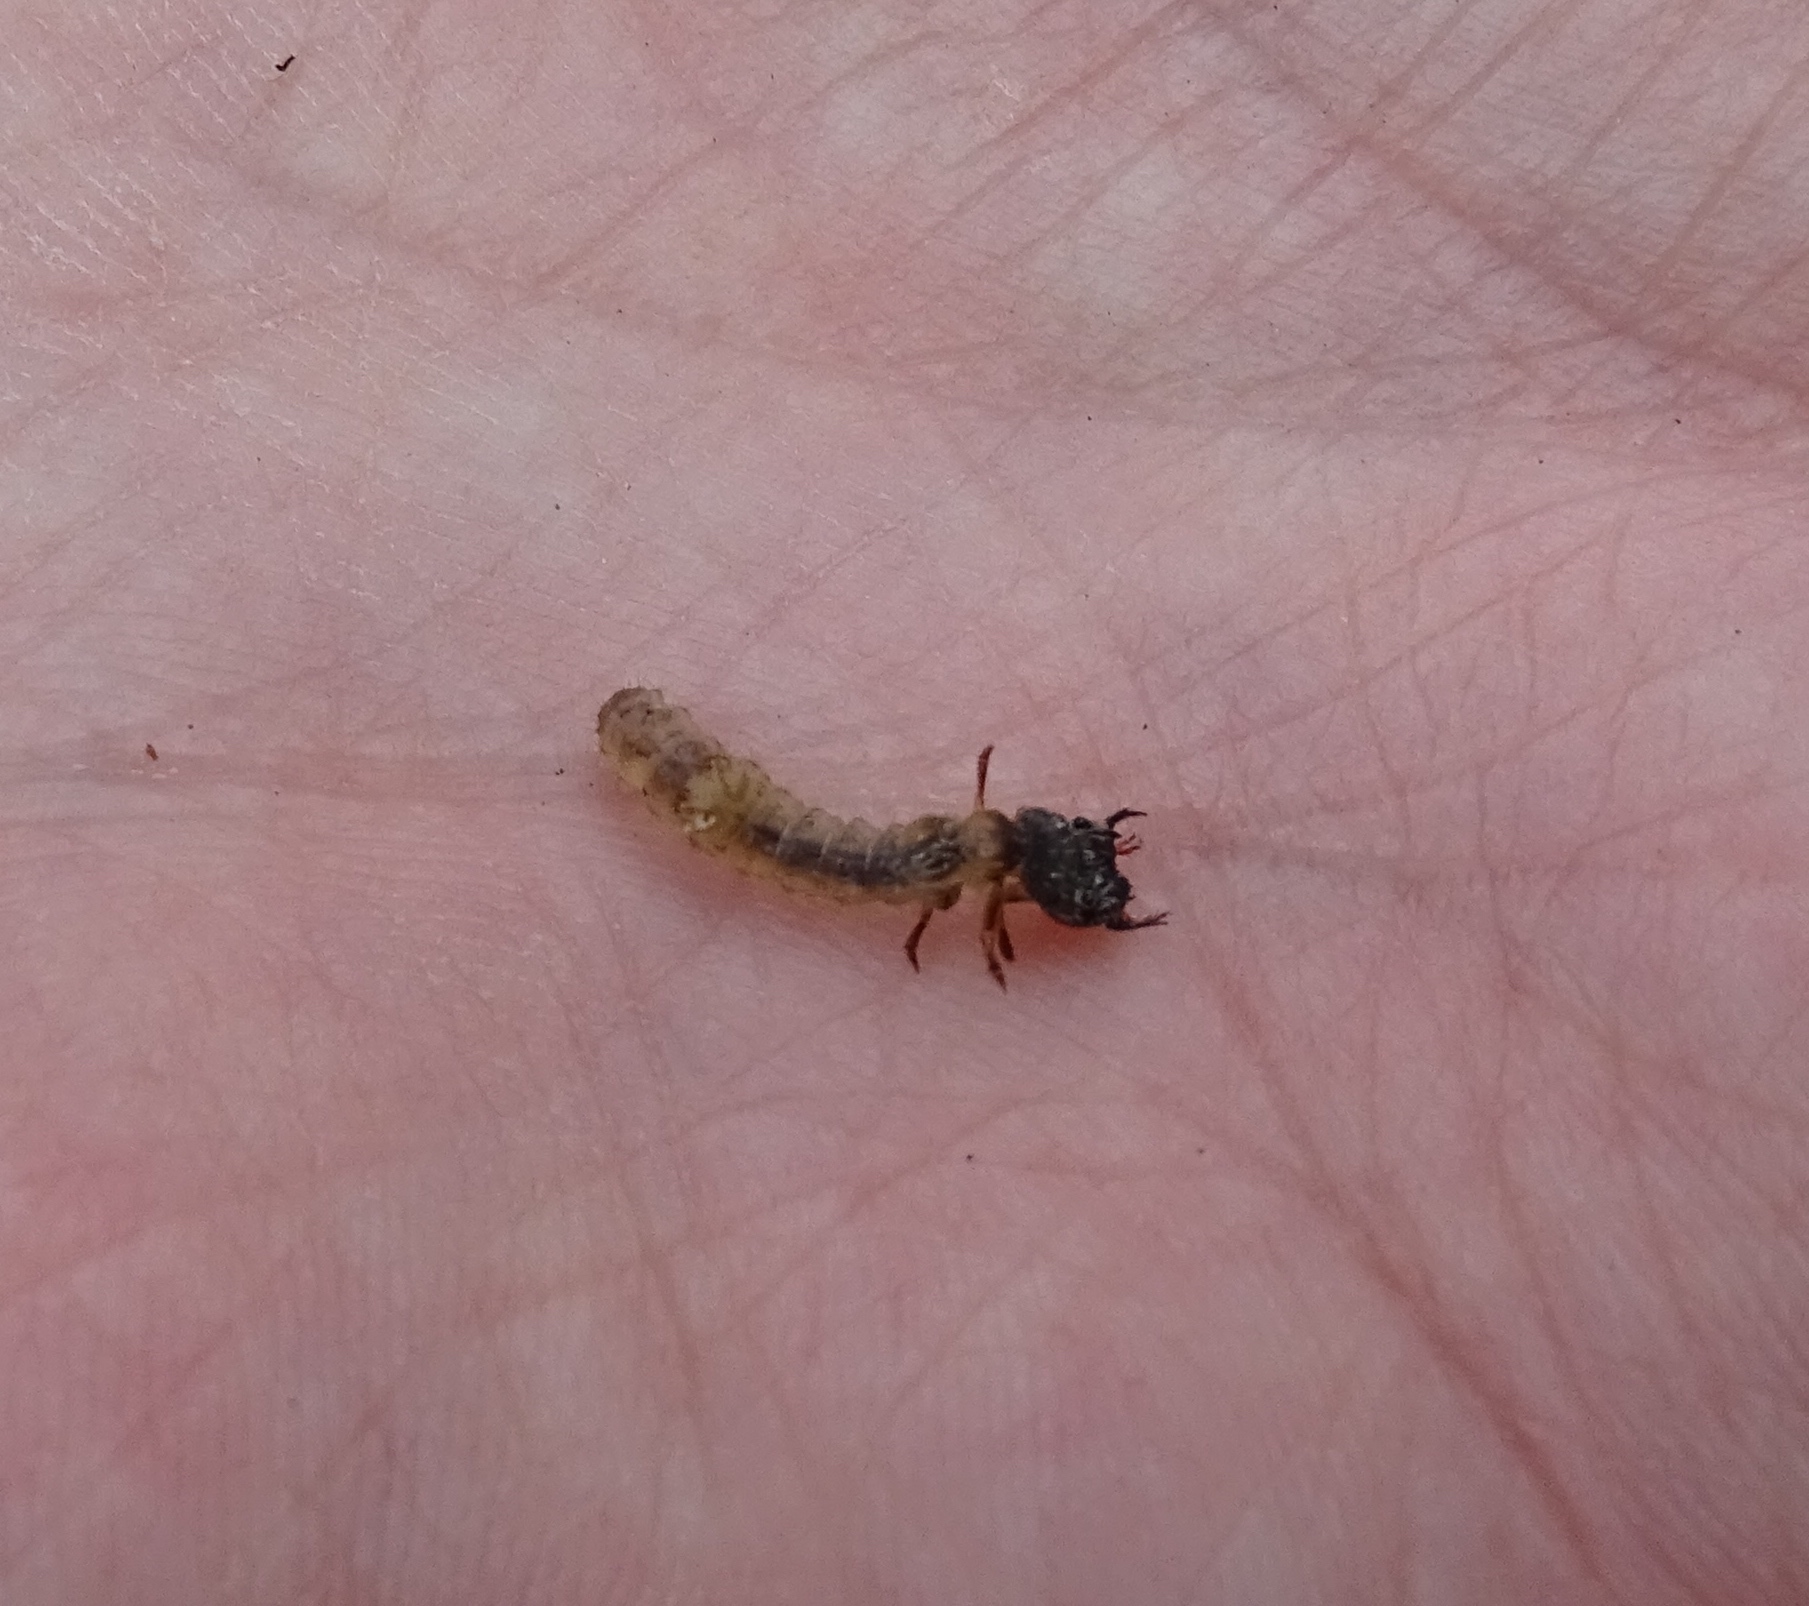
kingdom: Animalia
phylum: Arthropoda
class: Insecta
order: Coleoptera
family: Carabidae
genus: Cicindela
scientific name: Cicindela sexguttata
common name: Six-spotted tiger beetle
